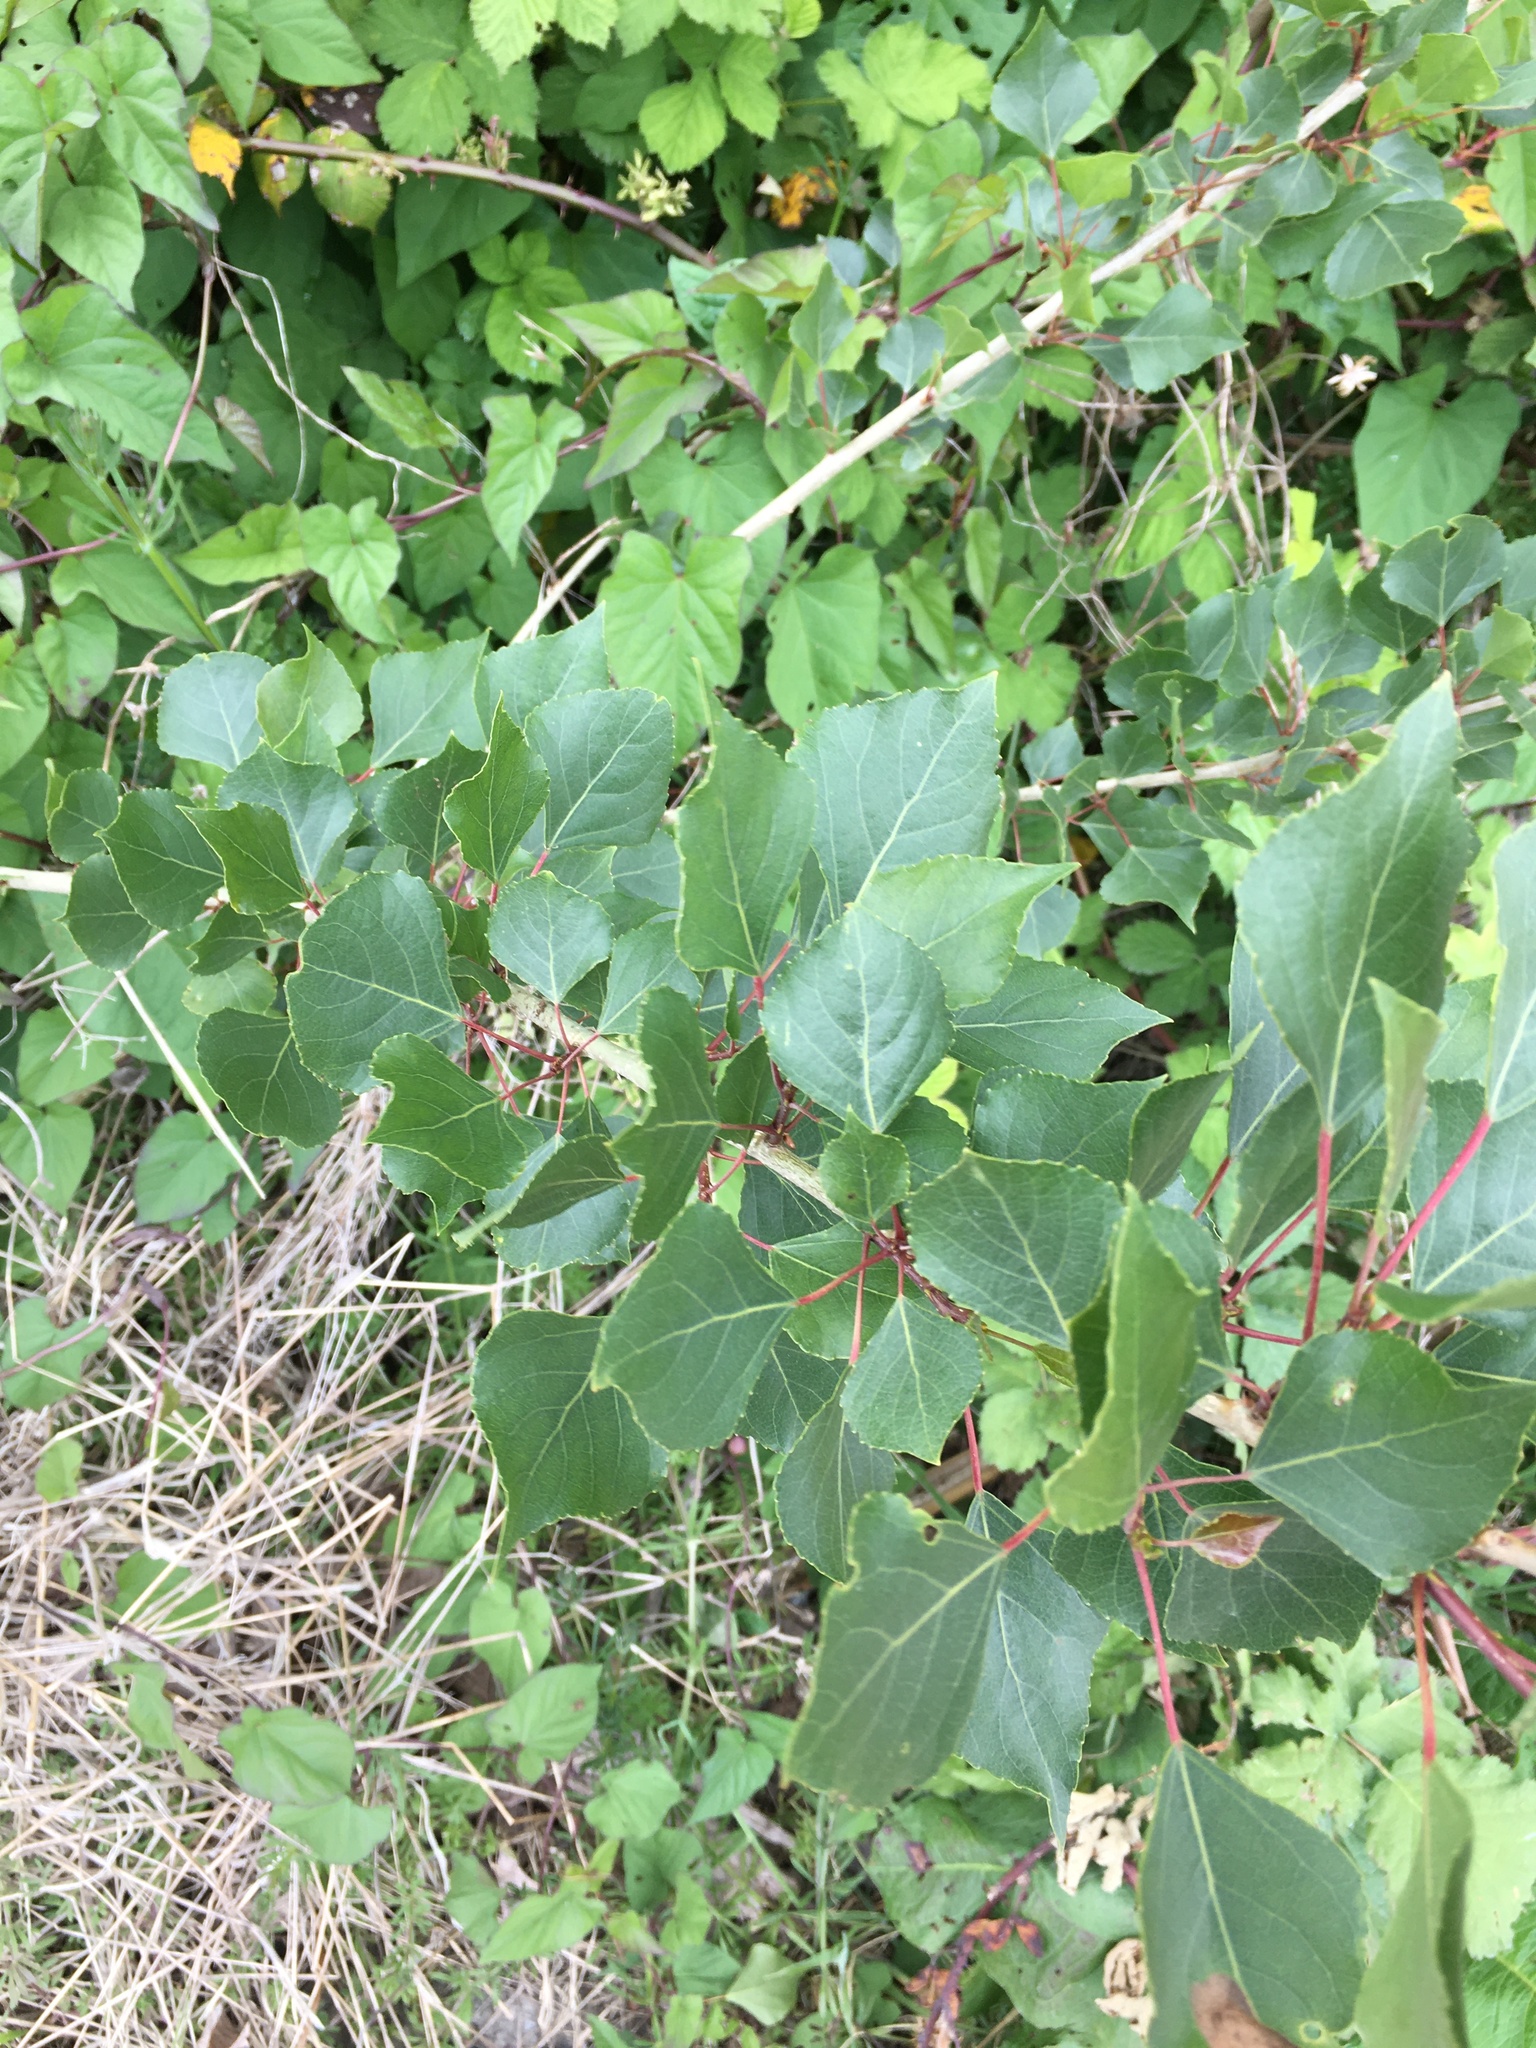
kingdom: Plantae
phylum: Tracheophyta
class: Magnoliopsida
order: Malpighiales
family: Salicaceae
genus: Populus
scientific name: Populus trichocarpa
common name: Black cottonwood
